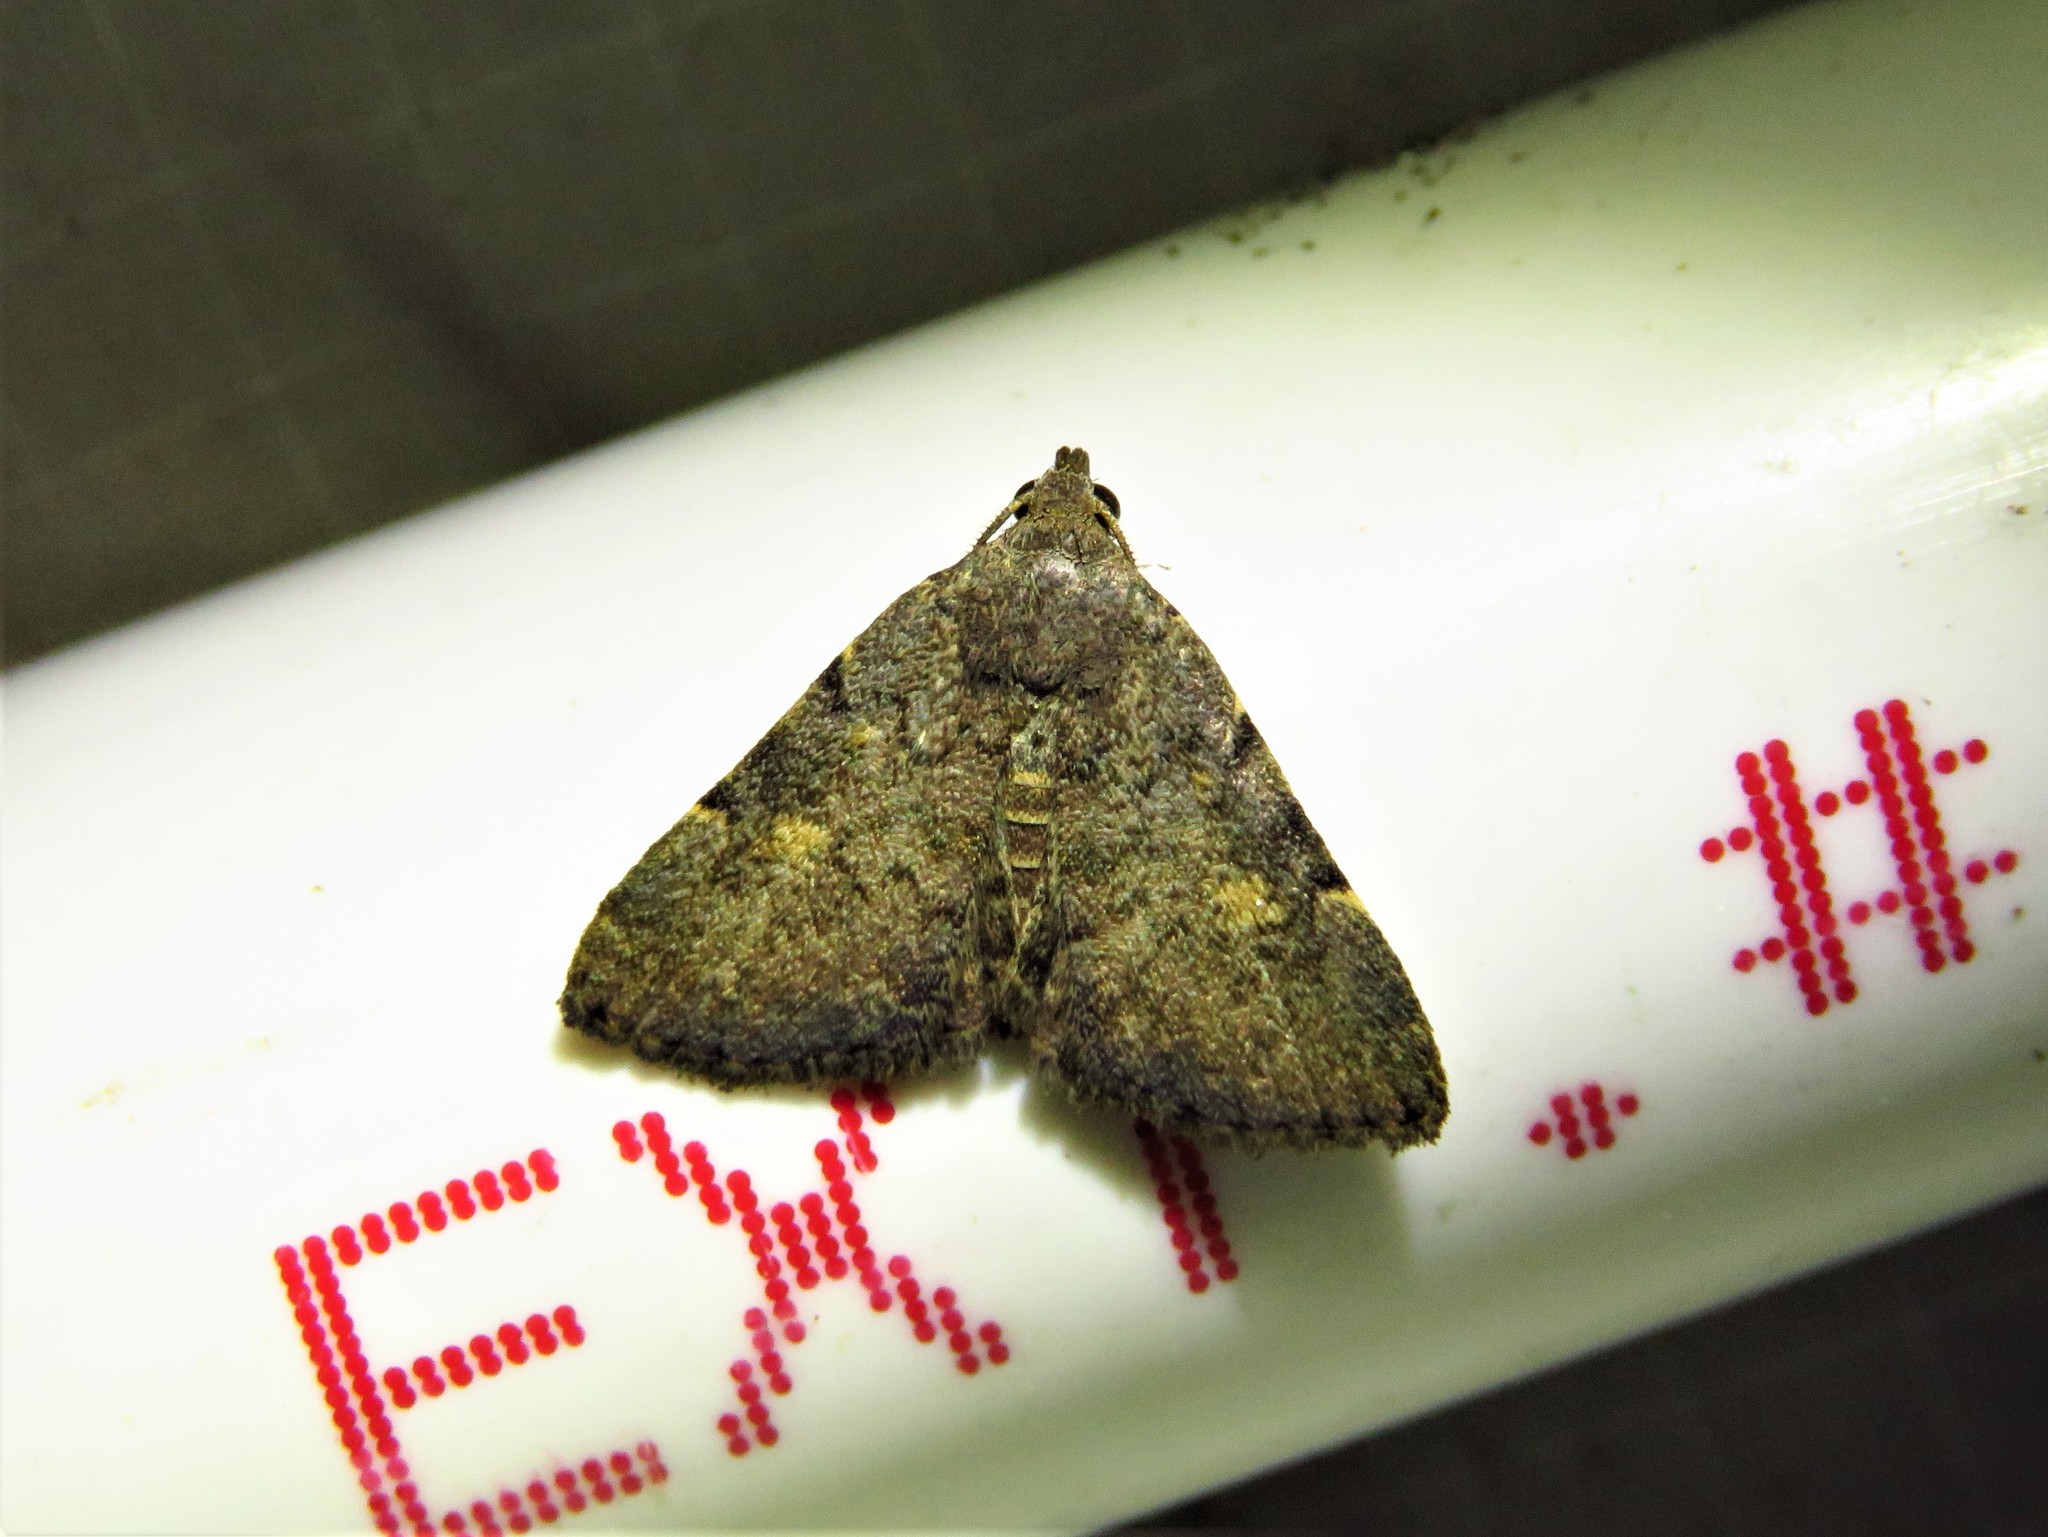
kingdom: Animalia
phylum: Arthropoda
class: Insecta
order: Lepidoptera
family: Erebidae
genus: Idia
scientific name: Idia aemula
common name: Common idia moth
